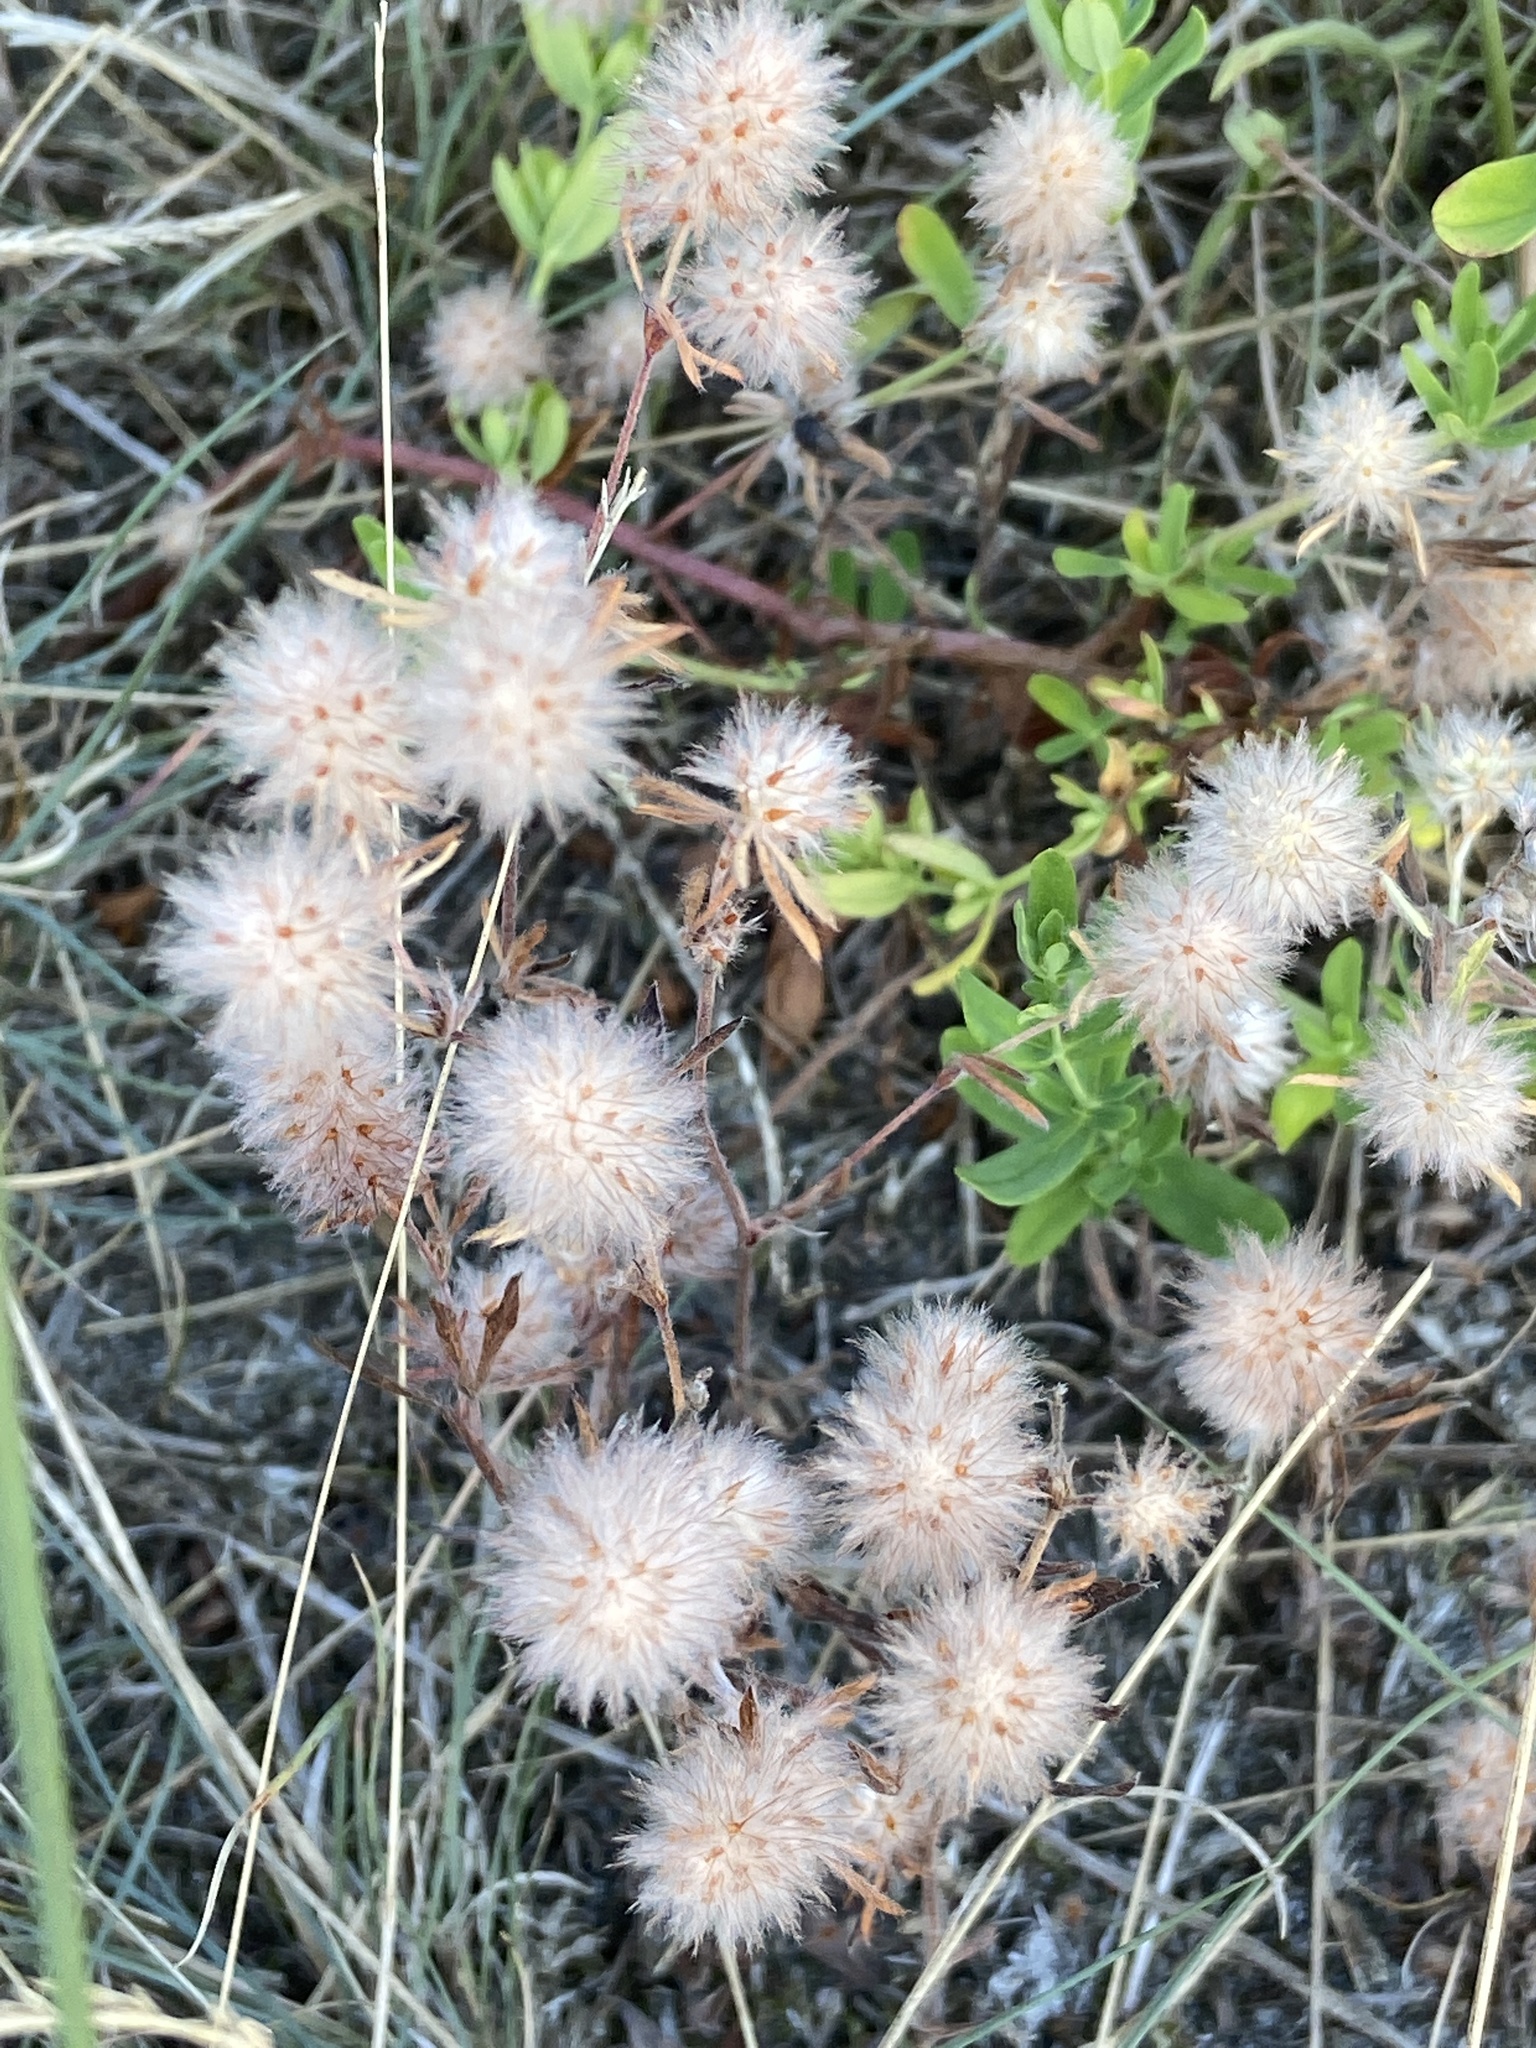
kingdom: Plantae
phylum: Tracheophyta
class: Magnoliopsida
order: Fabales
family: Fabaceae
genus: Trifolium
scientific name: Trifolium arvense
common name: Hare's-foot clover
